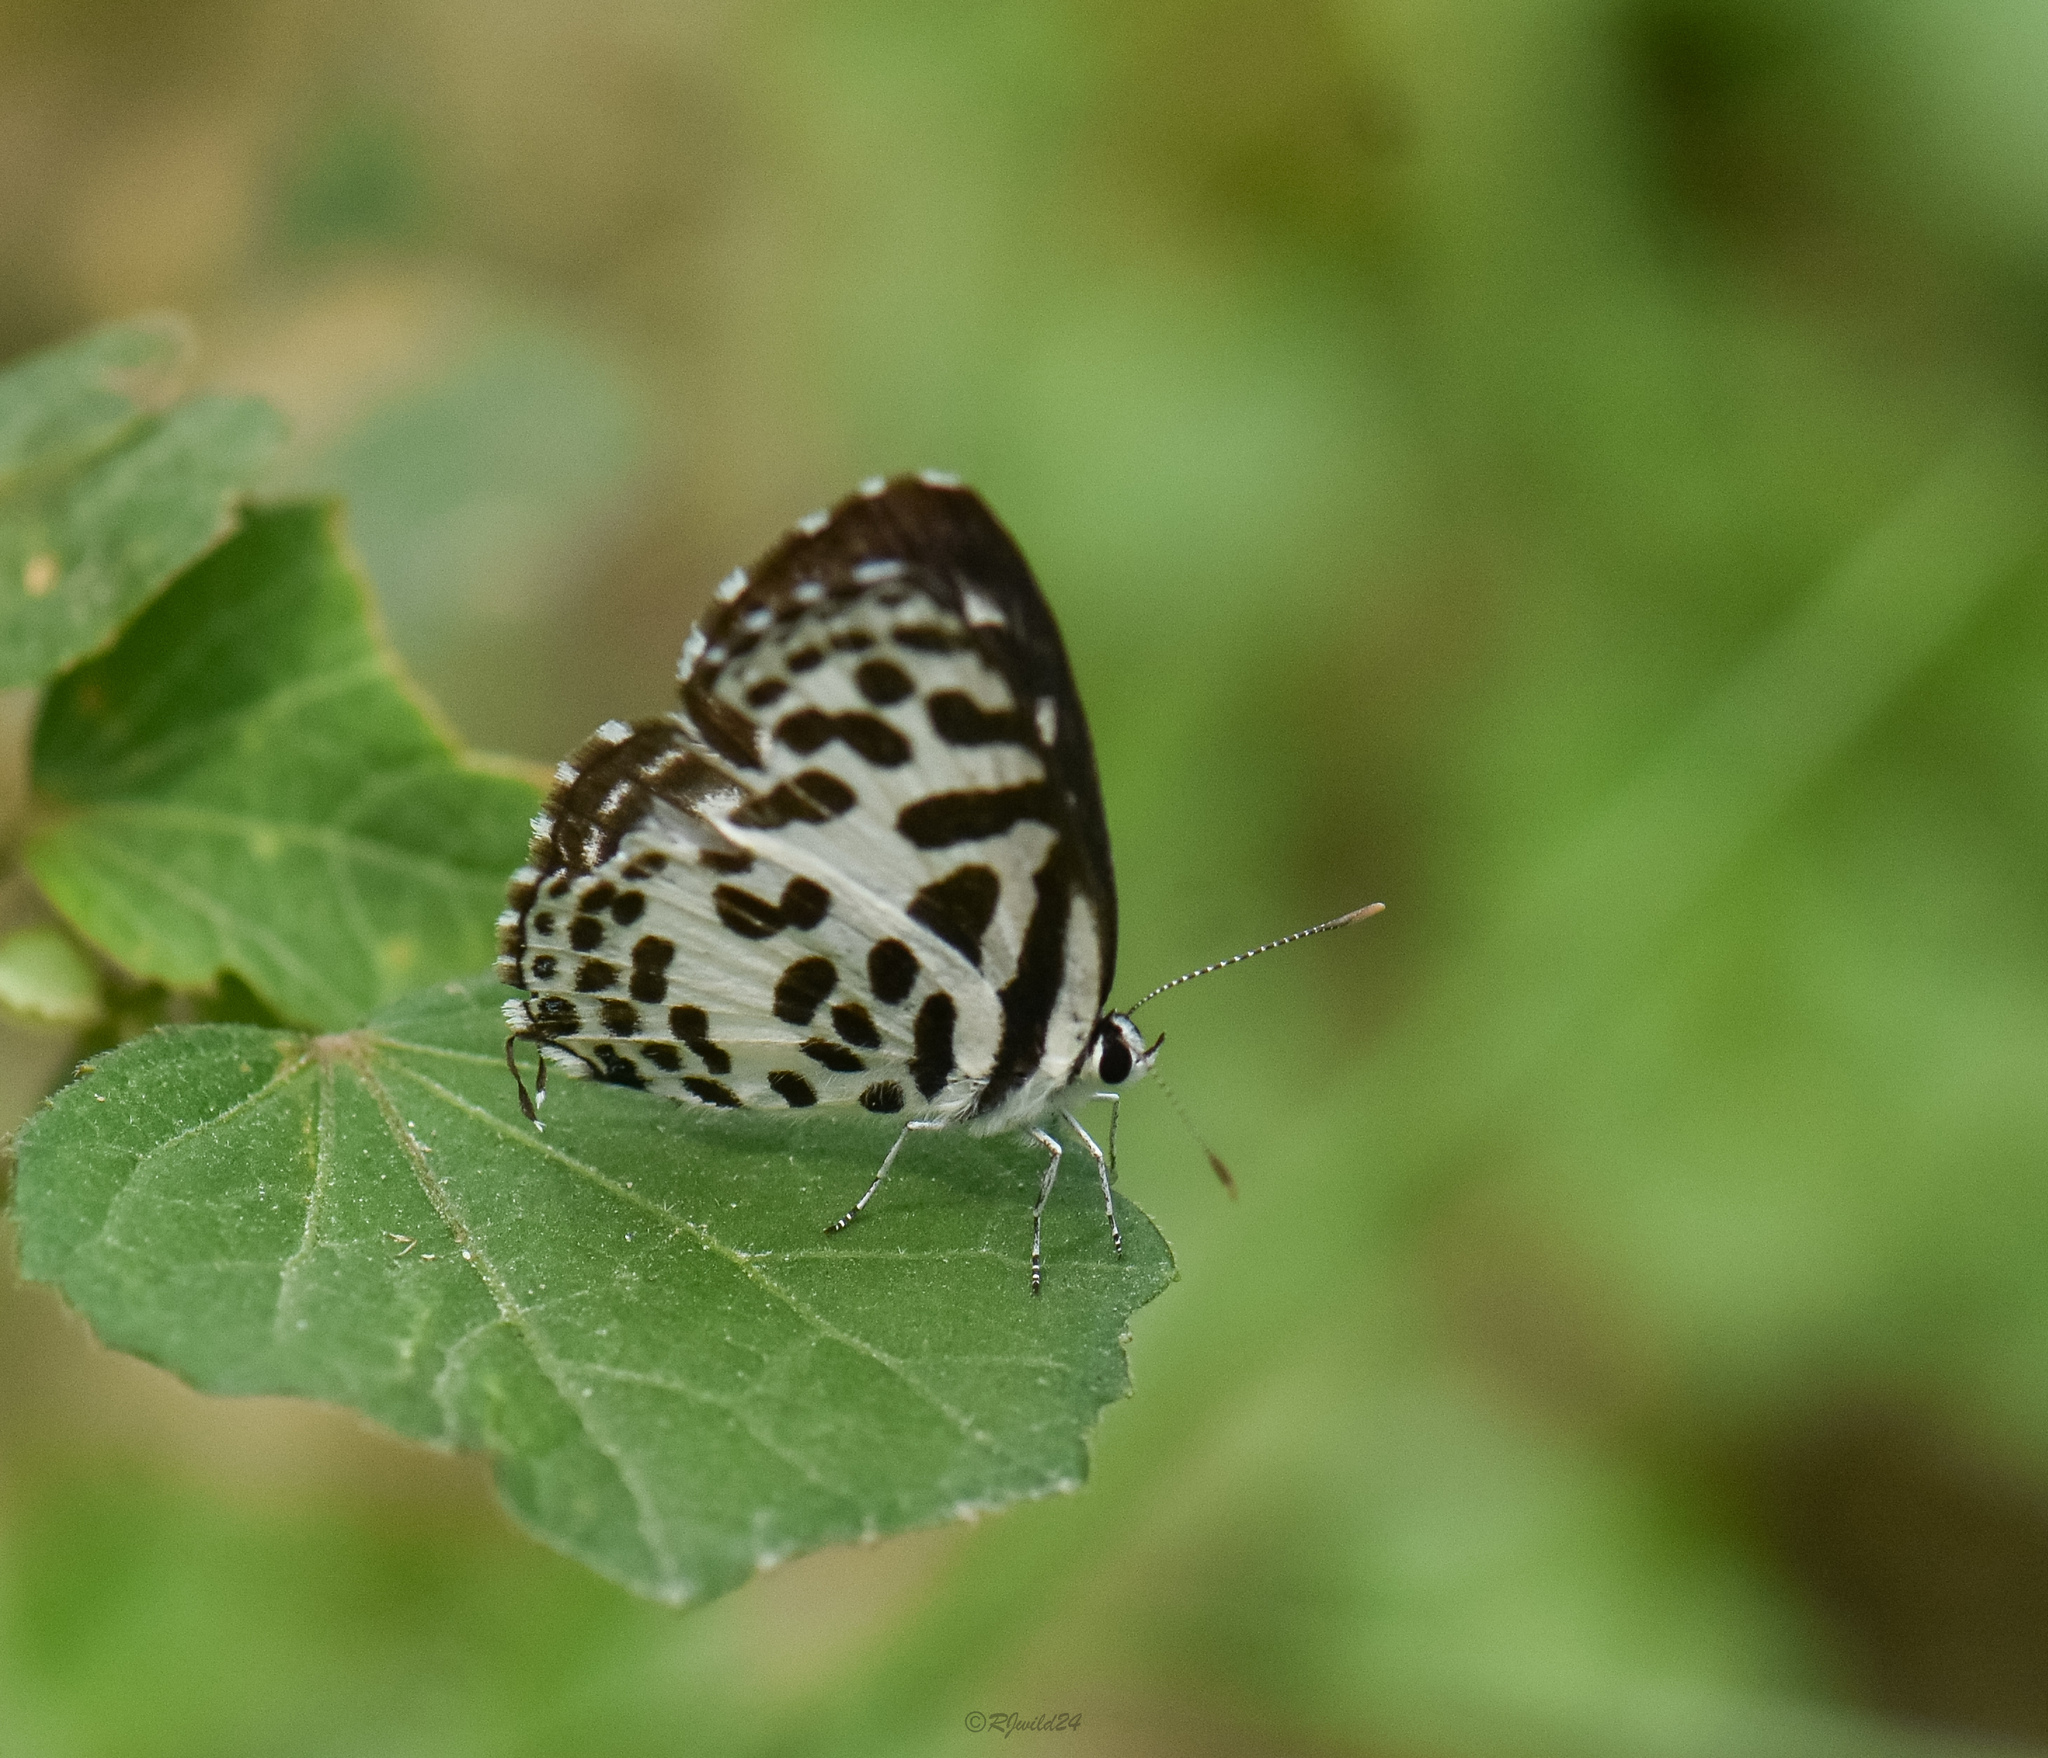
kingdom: Animalia
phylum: Arthropoda
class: Insecta
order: Lepidoptera
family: Lycaenidae
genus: Castalius
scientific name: Castalius rosimon
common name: Common pierrot
